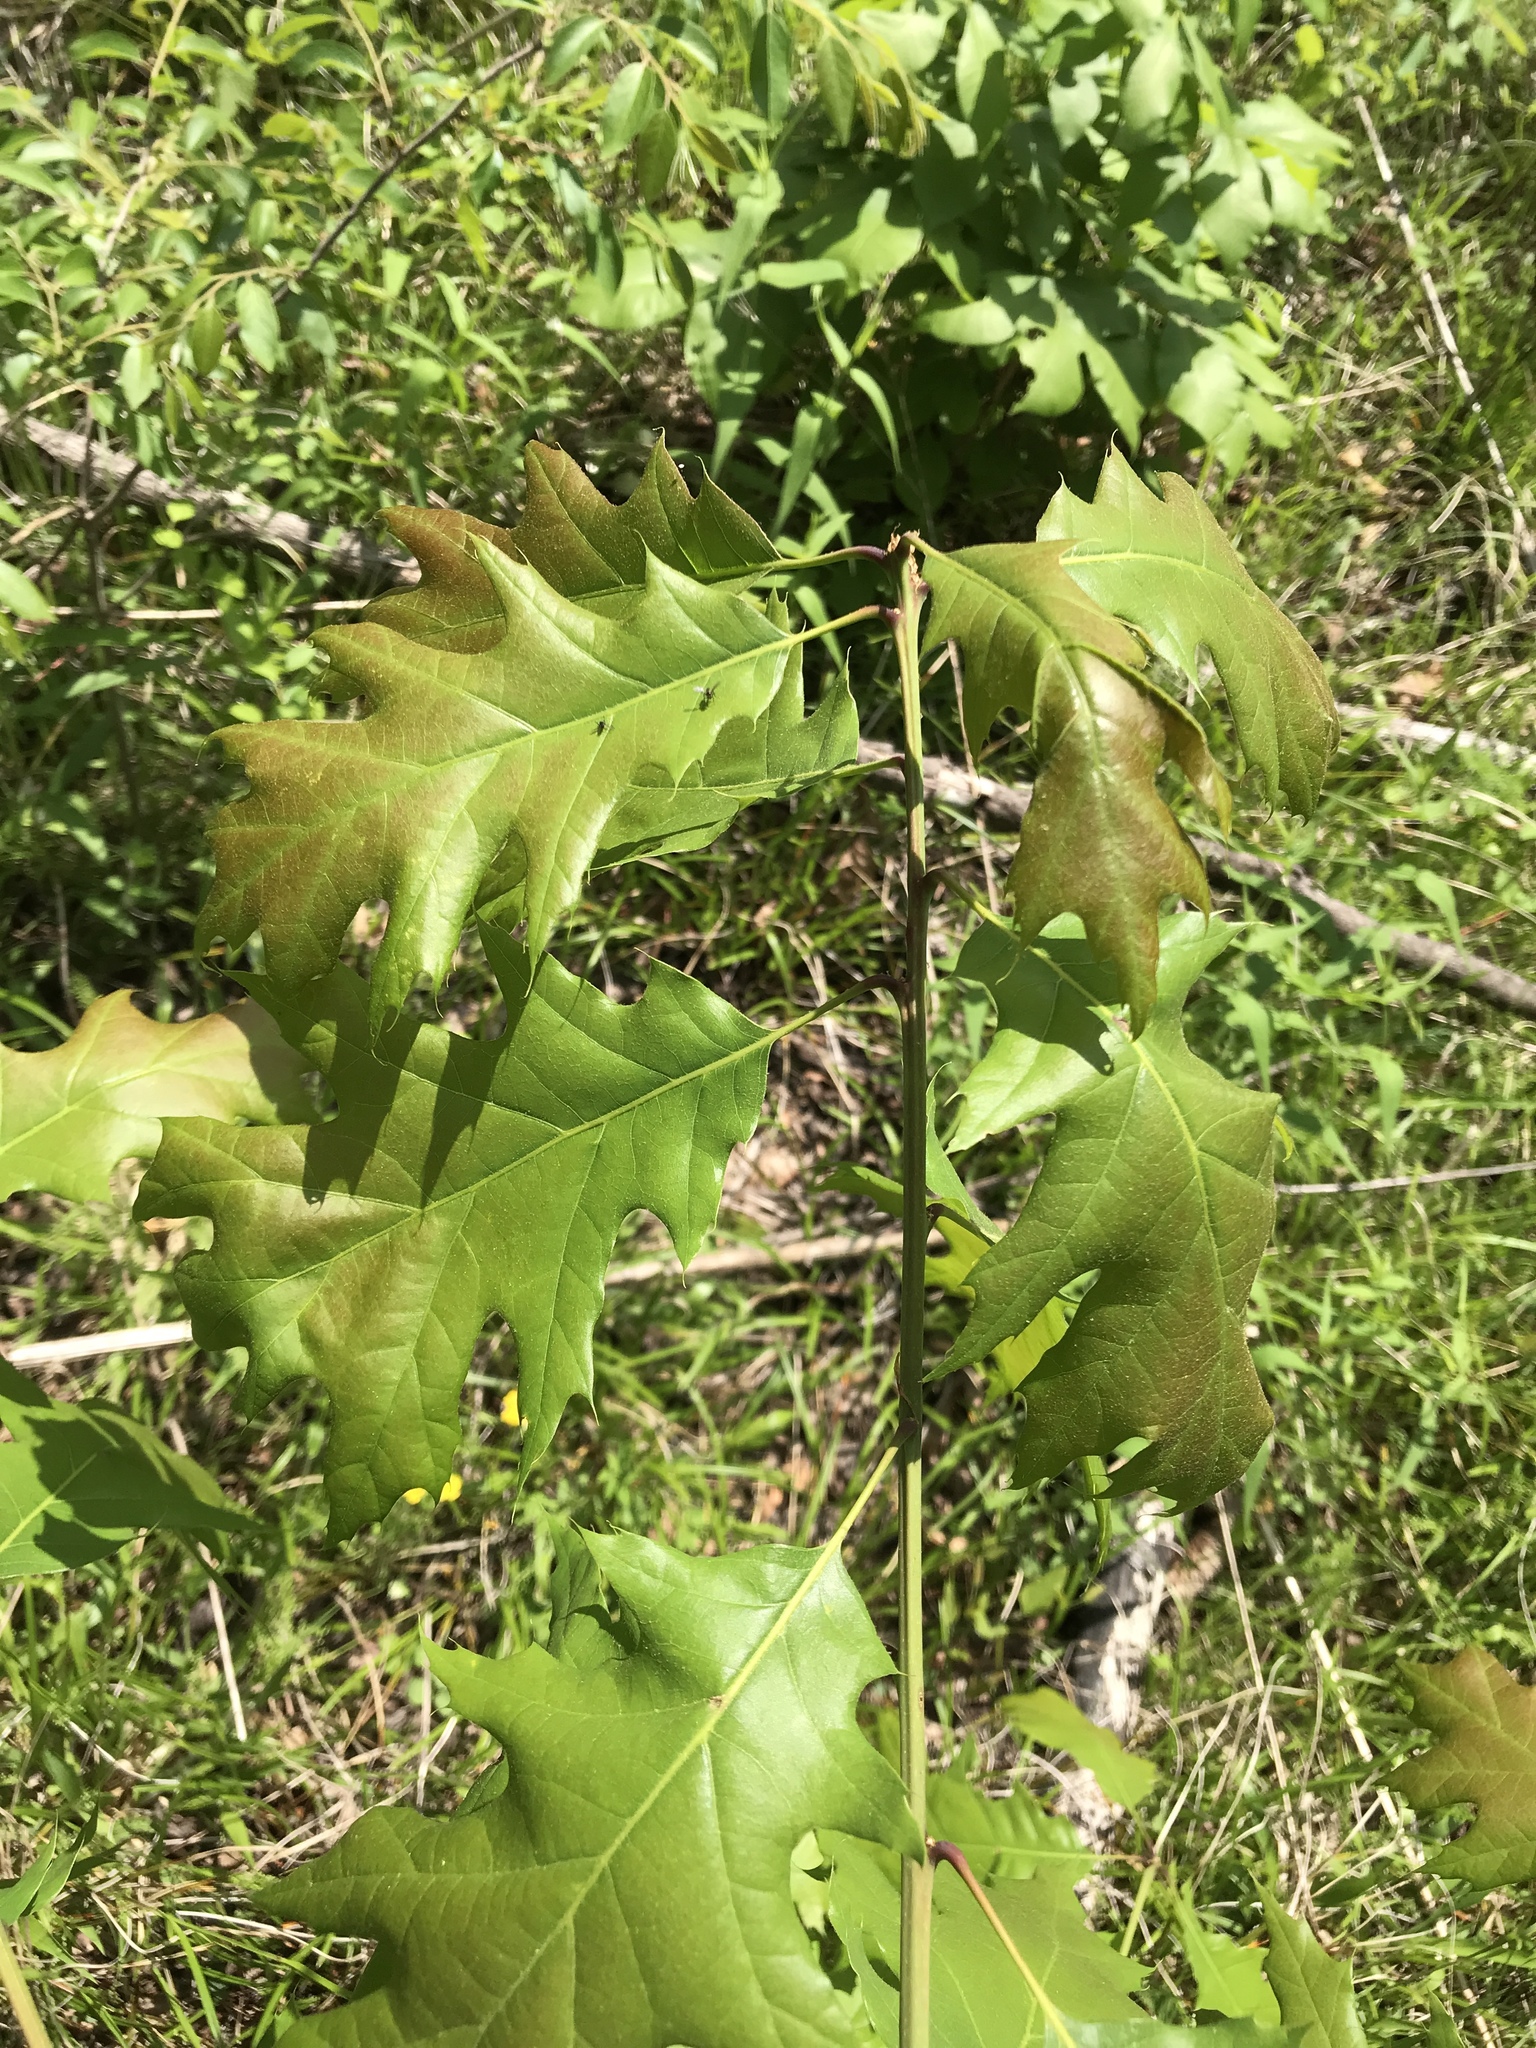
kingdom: Plantae
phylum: Tracheophyta
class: Magnoliopsida
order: Fagales
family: Fagaceae
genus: Quercus
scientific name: Quercus rubra
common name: Red oak
